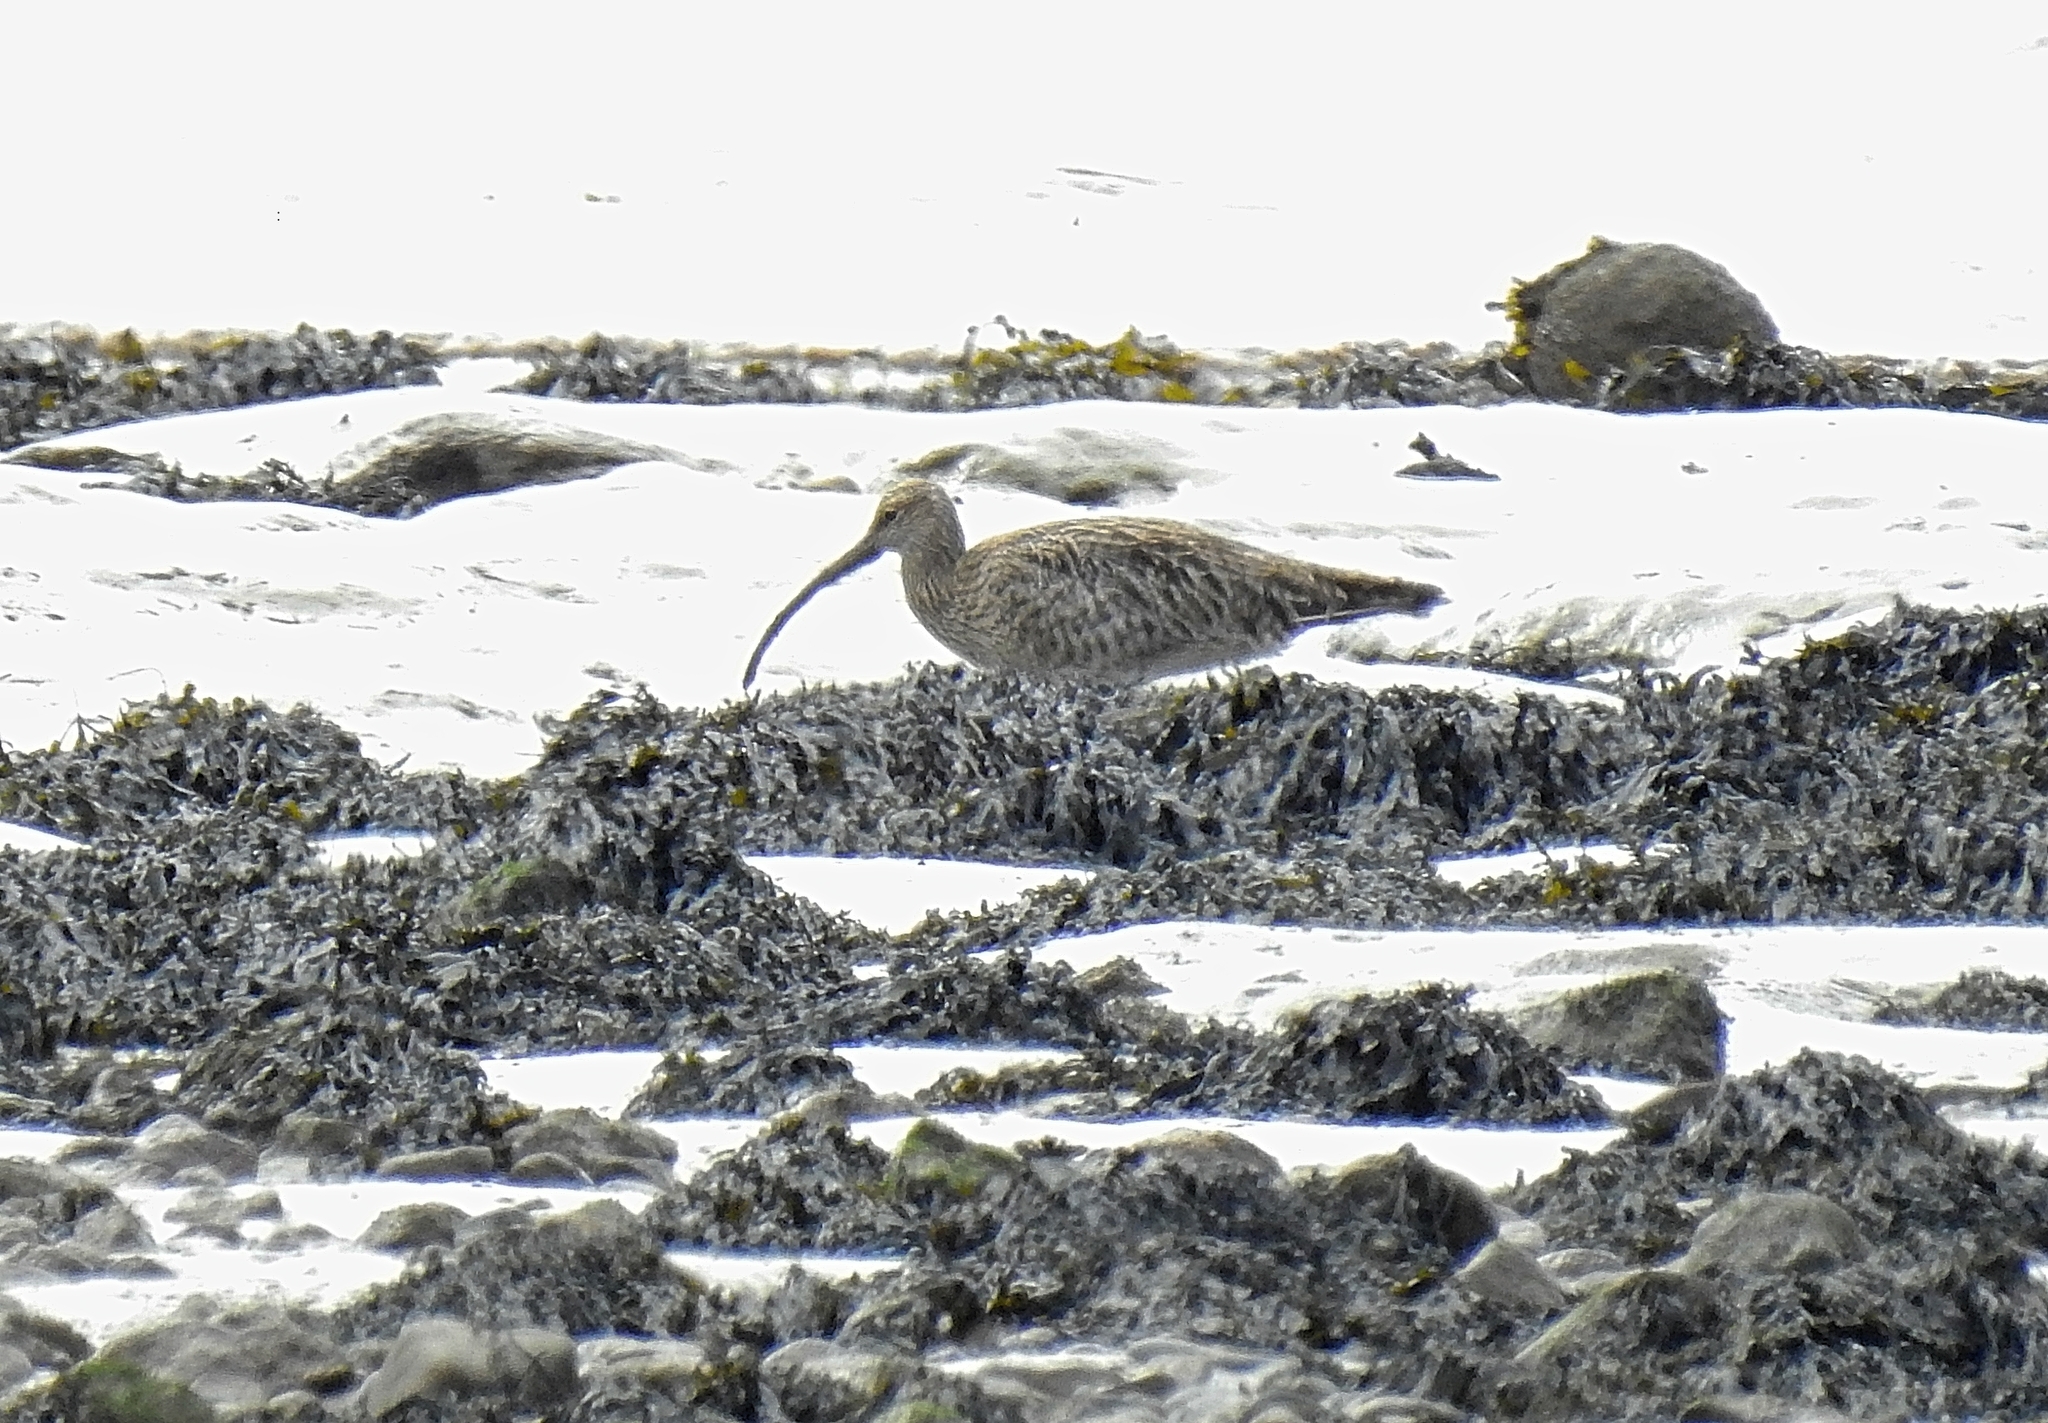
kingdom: Animalia
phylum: Chordata
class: Aves
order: Charadriiformes
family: Scolopacidae
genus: Numenius
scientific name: Numenius arquata
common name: Eurasian curlew
